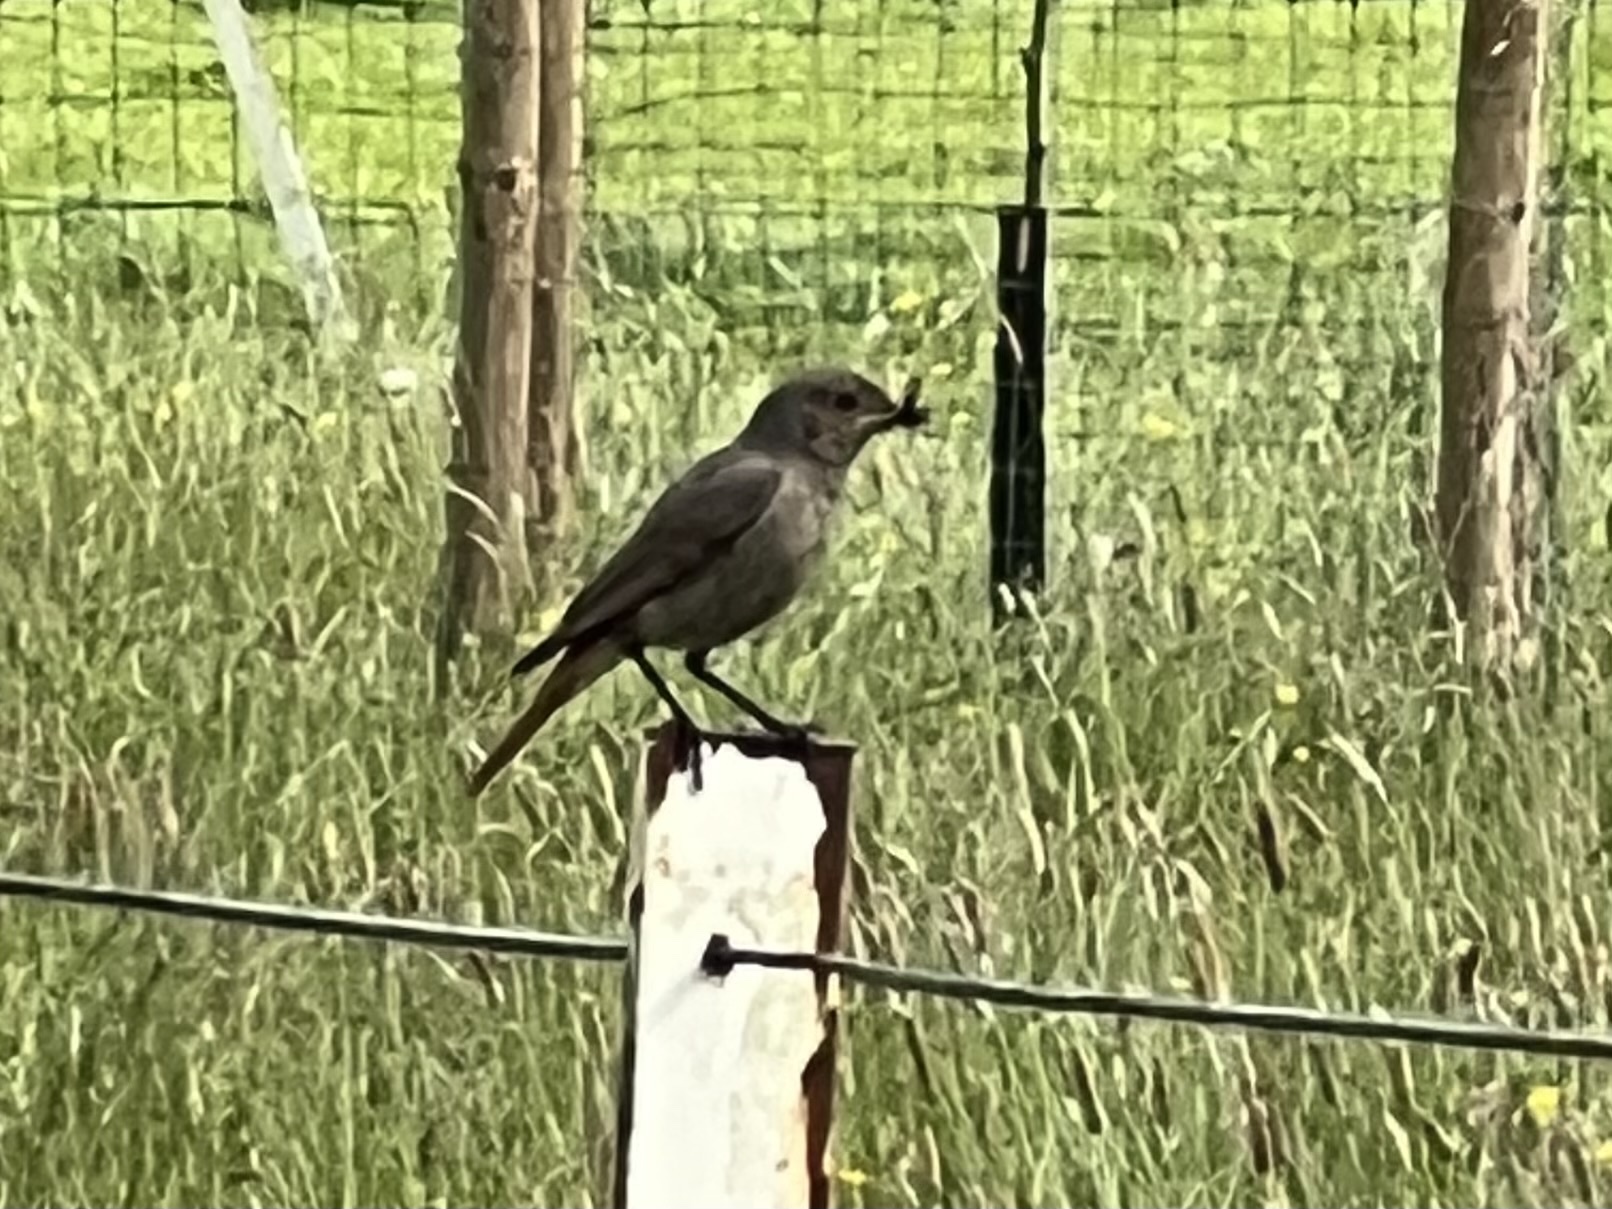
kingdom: Animalia
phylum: Chordata
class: Aves
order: Passeriformes
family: Muscicapidae
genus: Phoenicurus
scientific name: Phoenicurus ochruros
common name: Black redstart
